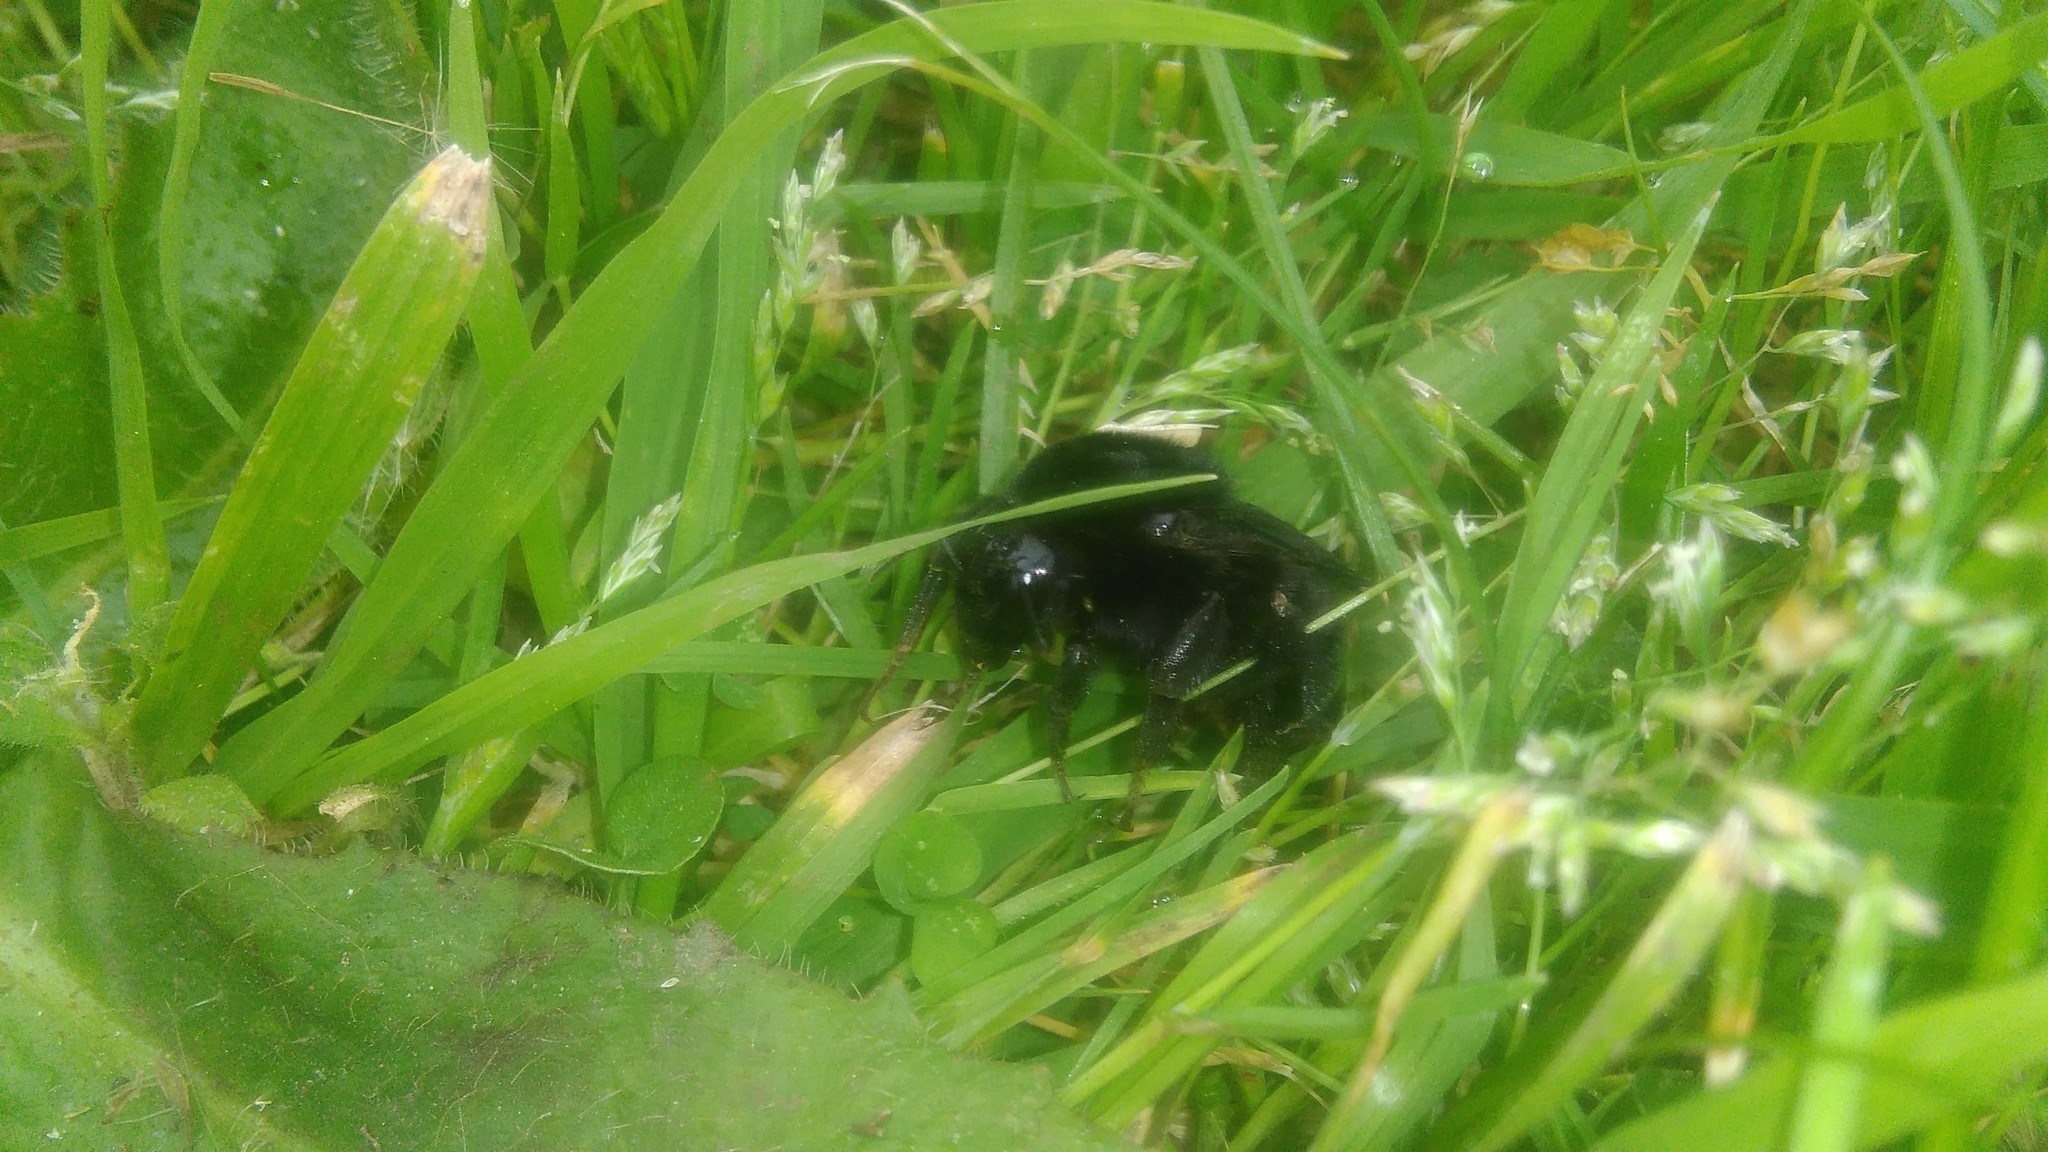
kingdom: Animalia
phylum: Arthropoda
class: Insecta
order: Hymenoptera
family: Apidae
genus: Bombus
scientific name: Bombus pauloensis
